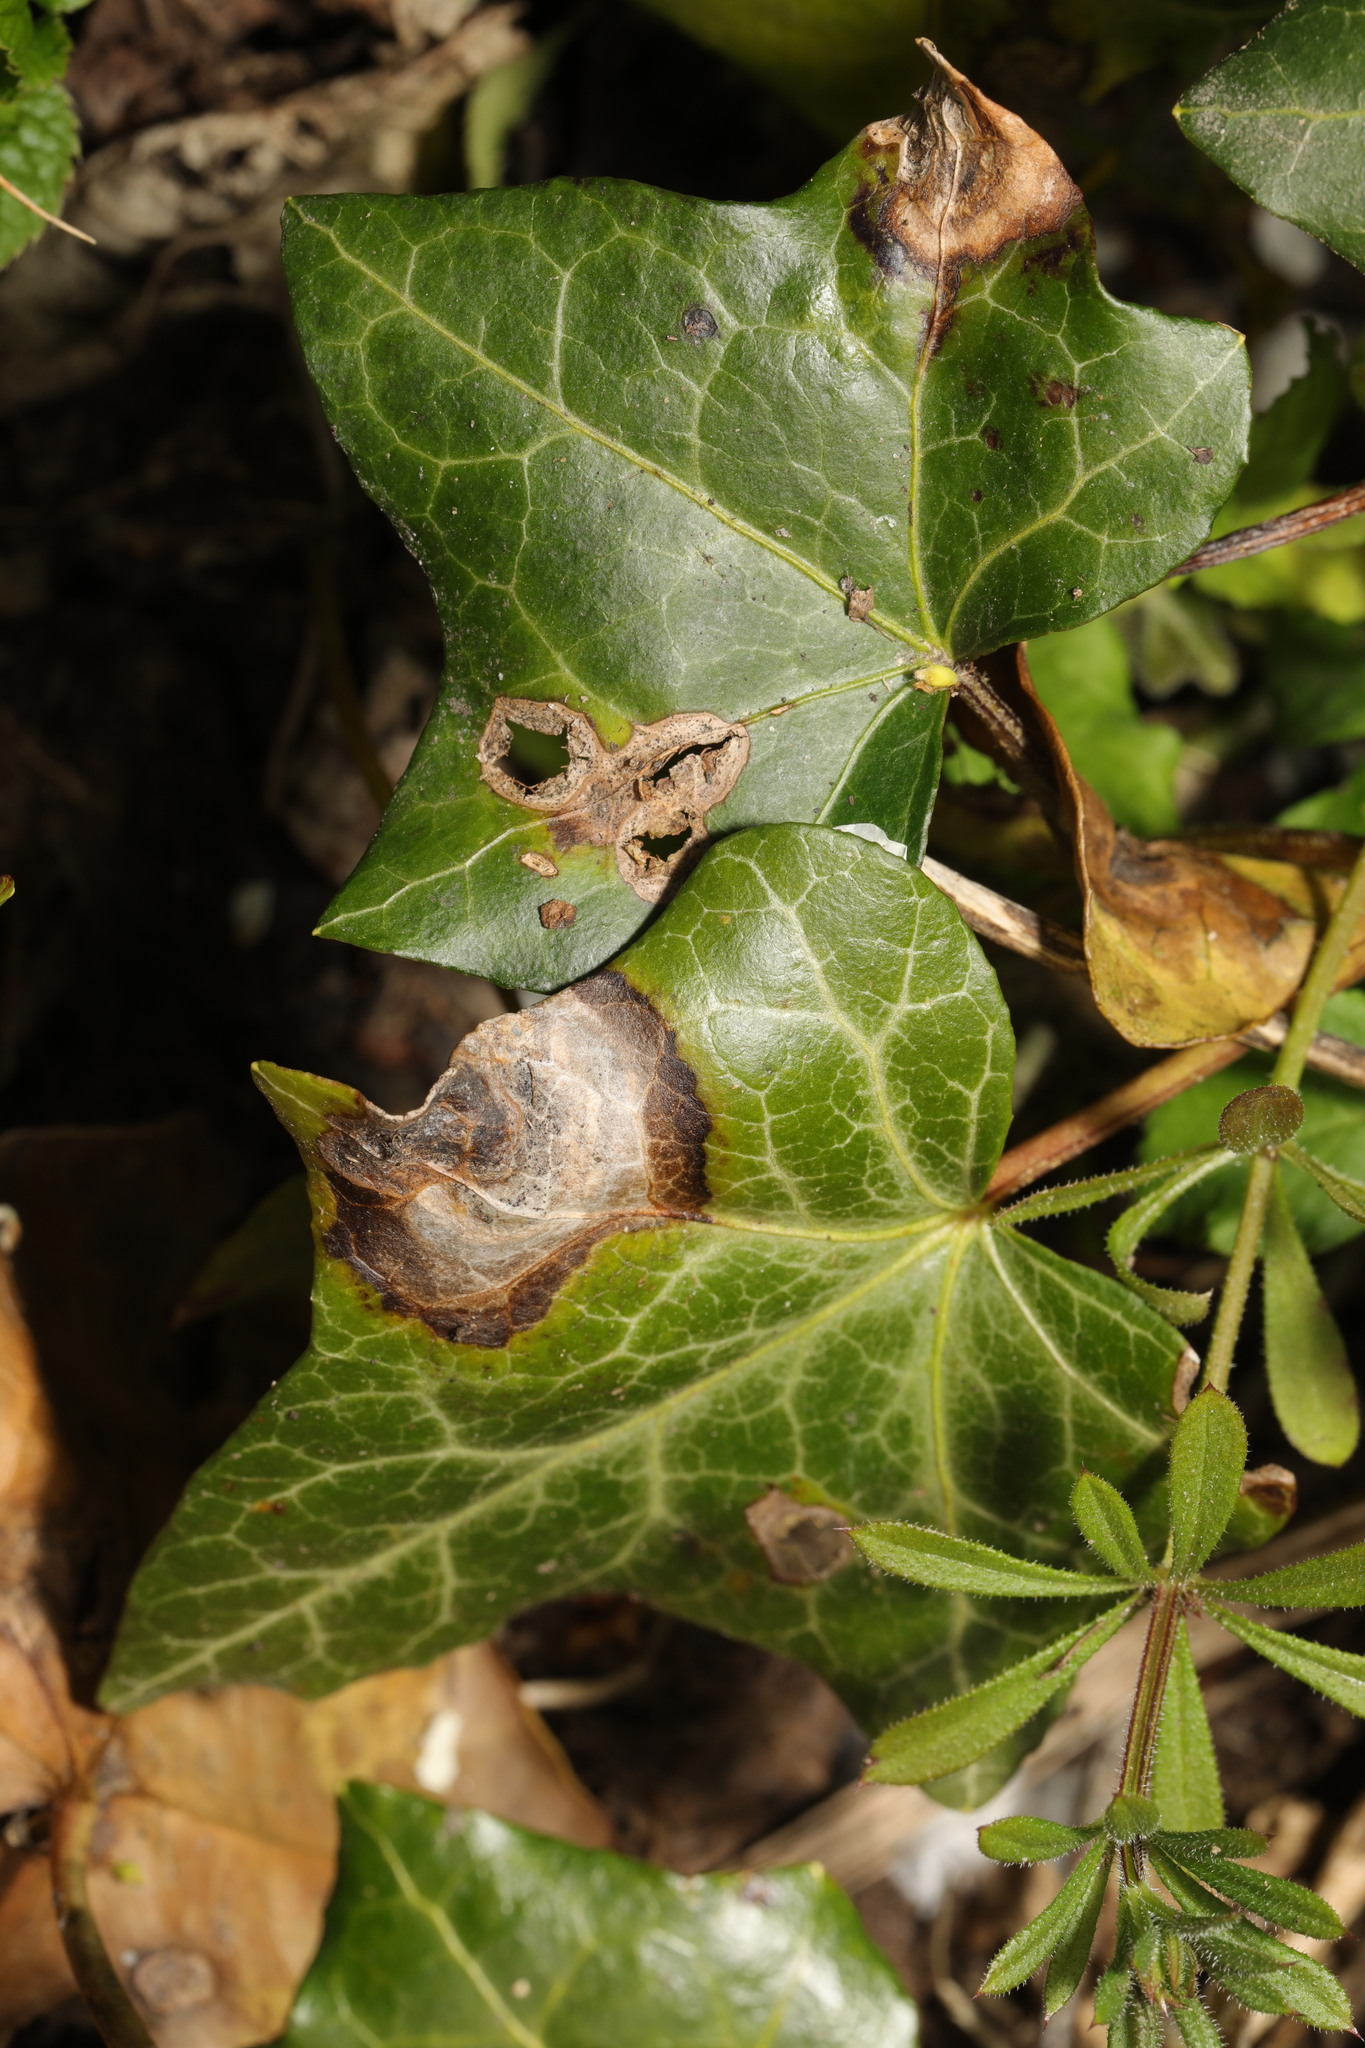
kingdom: Fungi
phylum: Ascomycota
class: Dothideomycetes
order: Pleosporales
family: Didymellaceae
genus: Boeremia
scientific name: Boeremia hedericola
